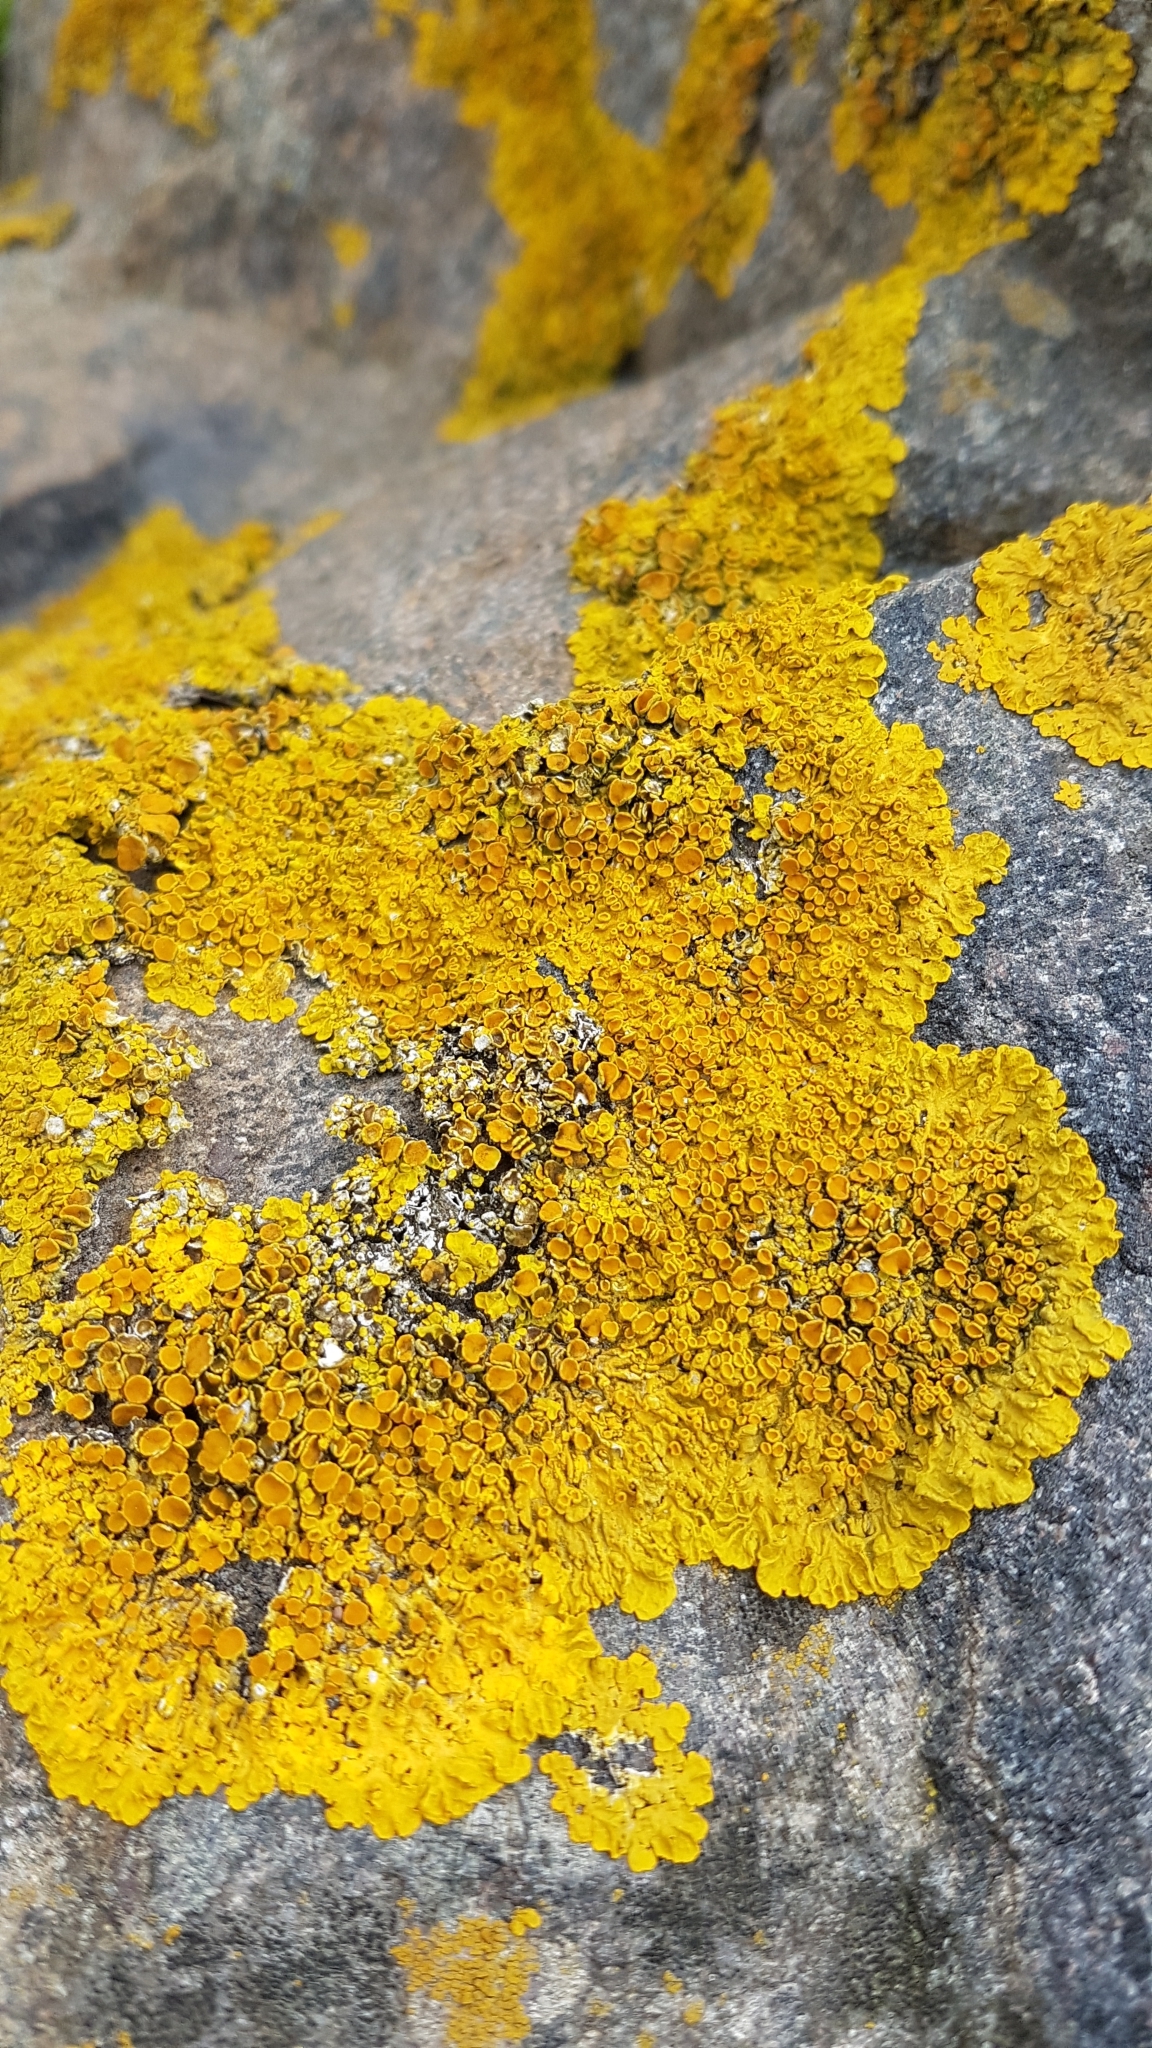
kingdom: Fungi
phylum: Ascomycota
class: Lecanoromycetes
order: Teloschistales
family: Teloschistaceae
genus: Xanthoria
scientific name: Xanthoria parietina
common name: Common orange lichen
